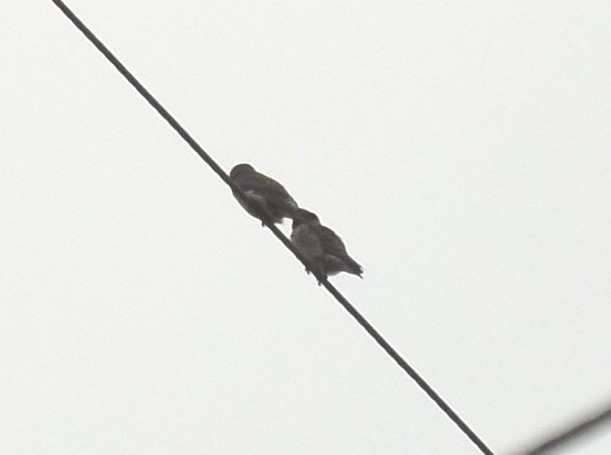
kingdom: Animalia
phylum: Chordata
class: Aves
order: Passeriformes
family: Artamidae
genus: Artamus
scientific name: Artamus fuscus
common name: Ashy woodswallow
